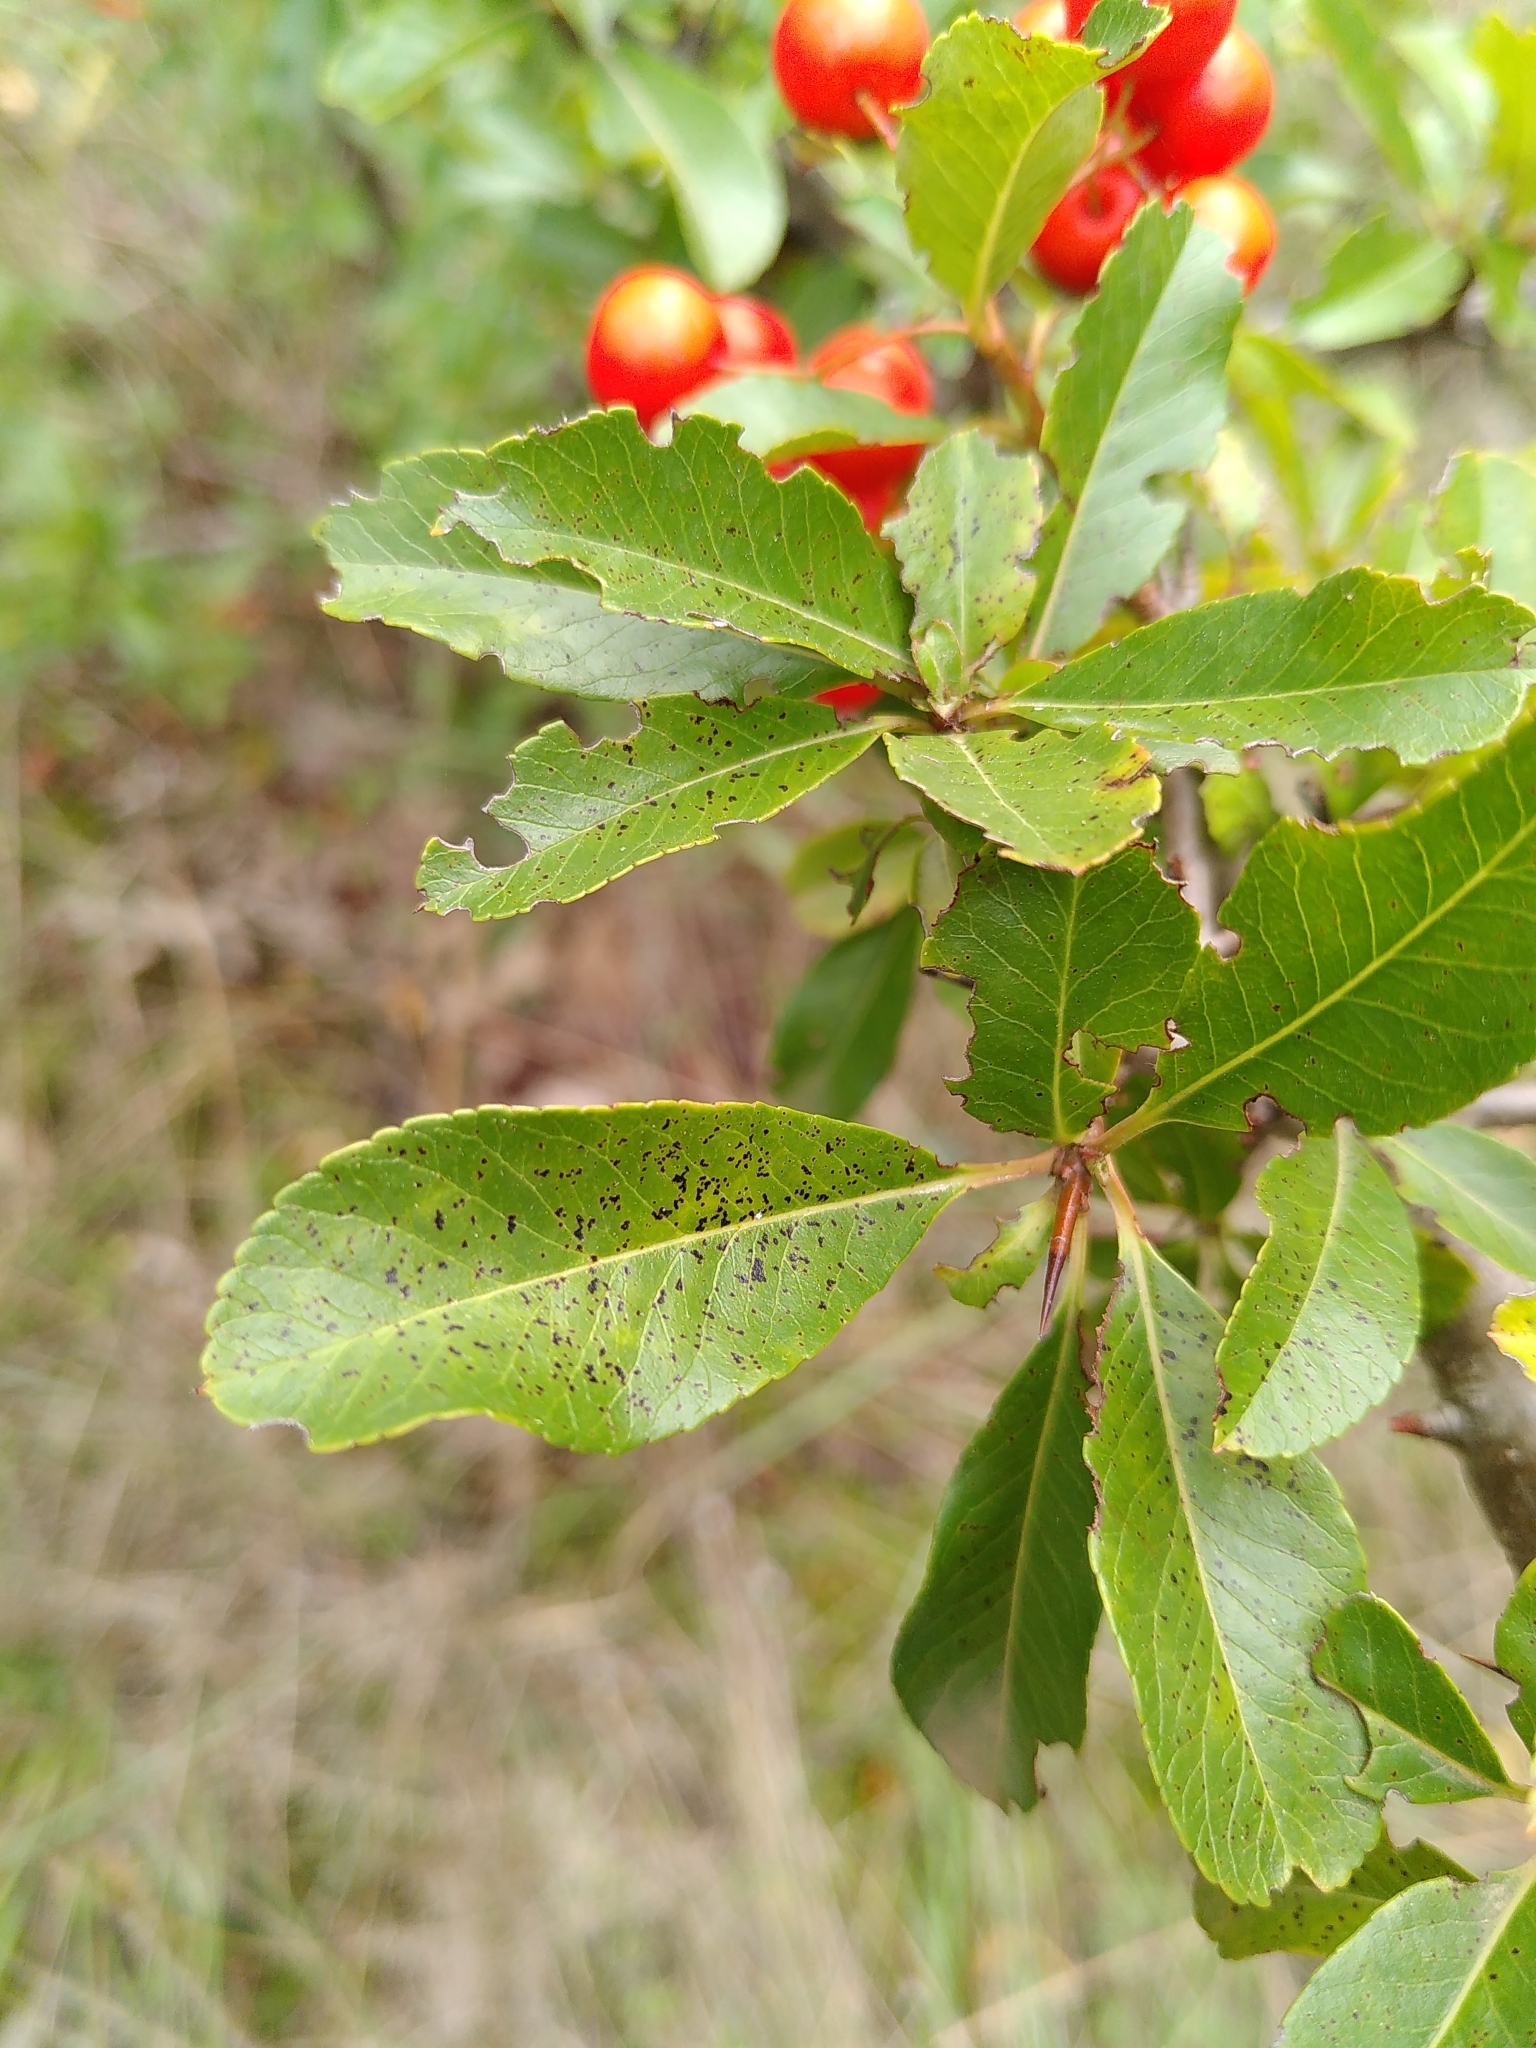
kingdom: Plantae
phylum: Tracheophyta
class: Magnoliopsida
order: Rosales
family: Rosaceae
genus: Pyracantha
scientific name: Pyracantha coccinea
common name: Firethorn
